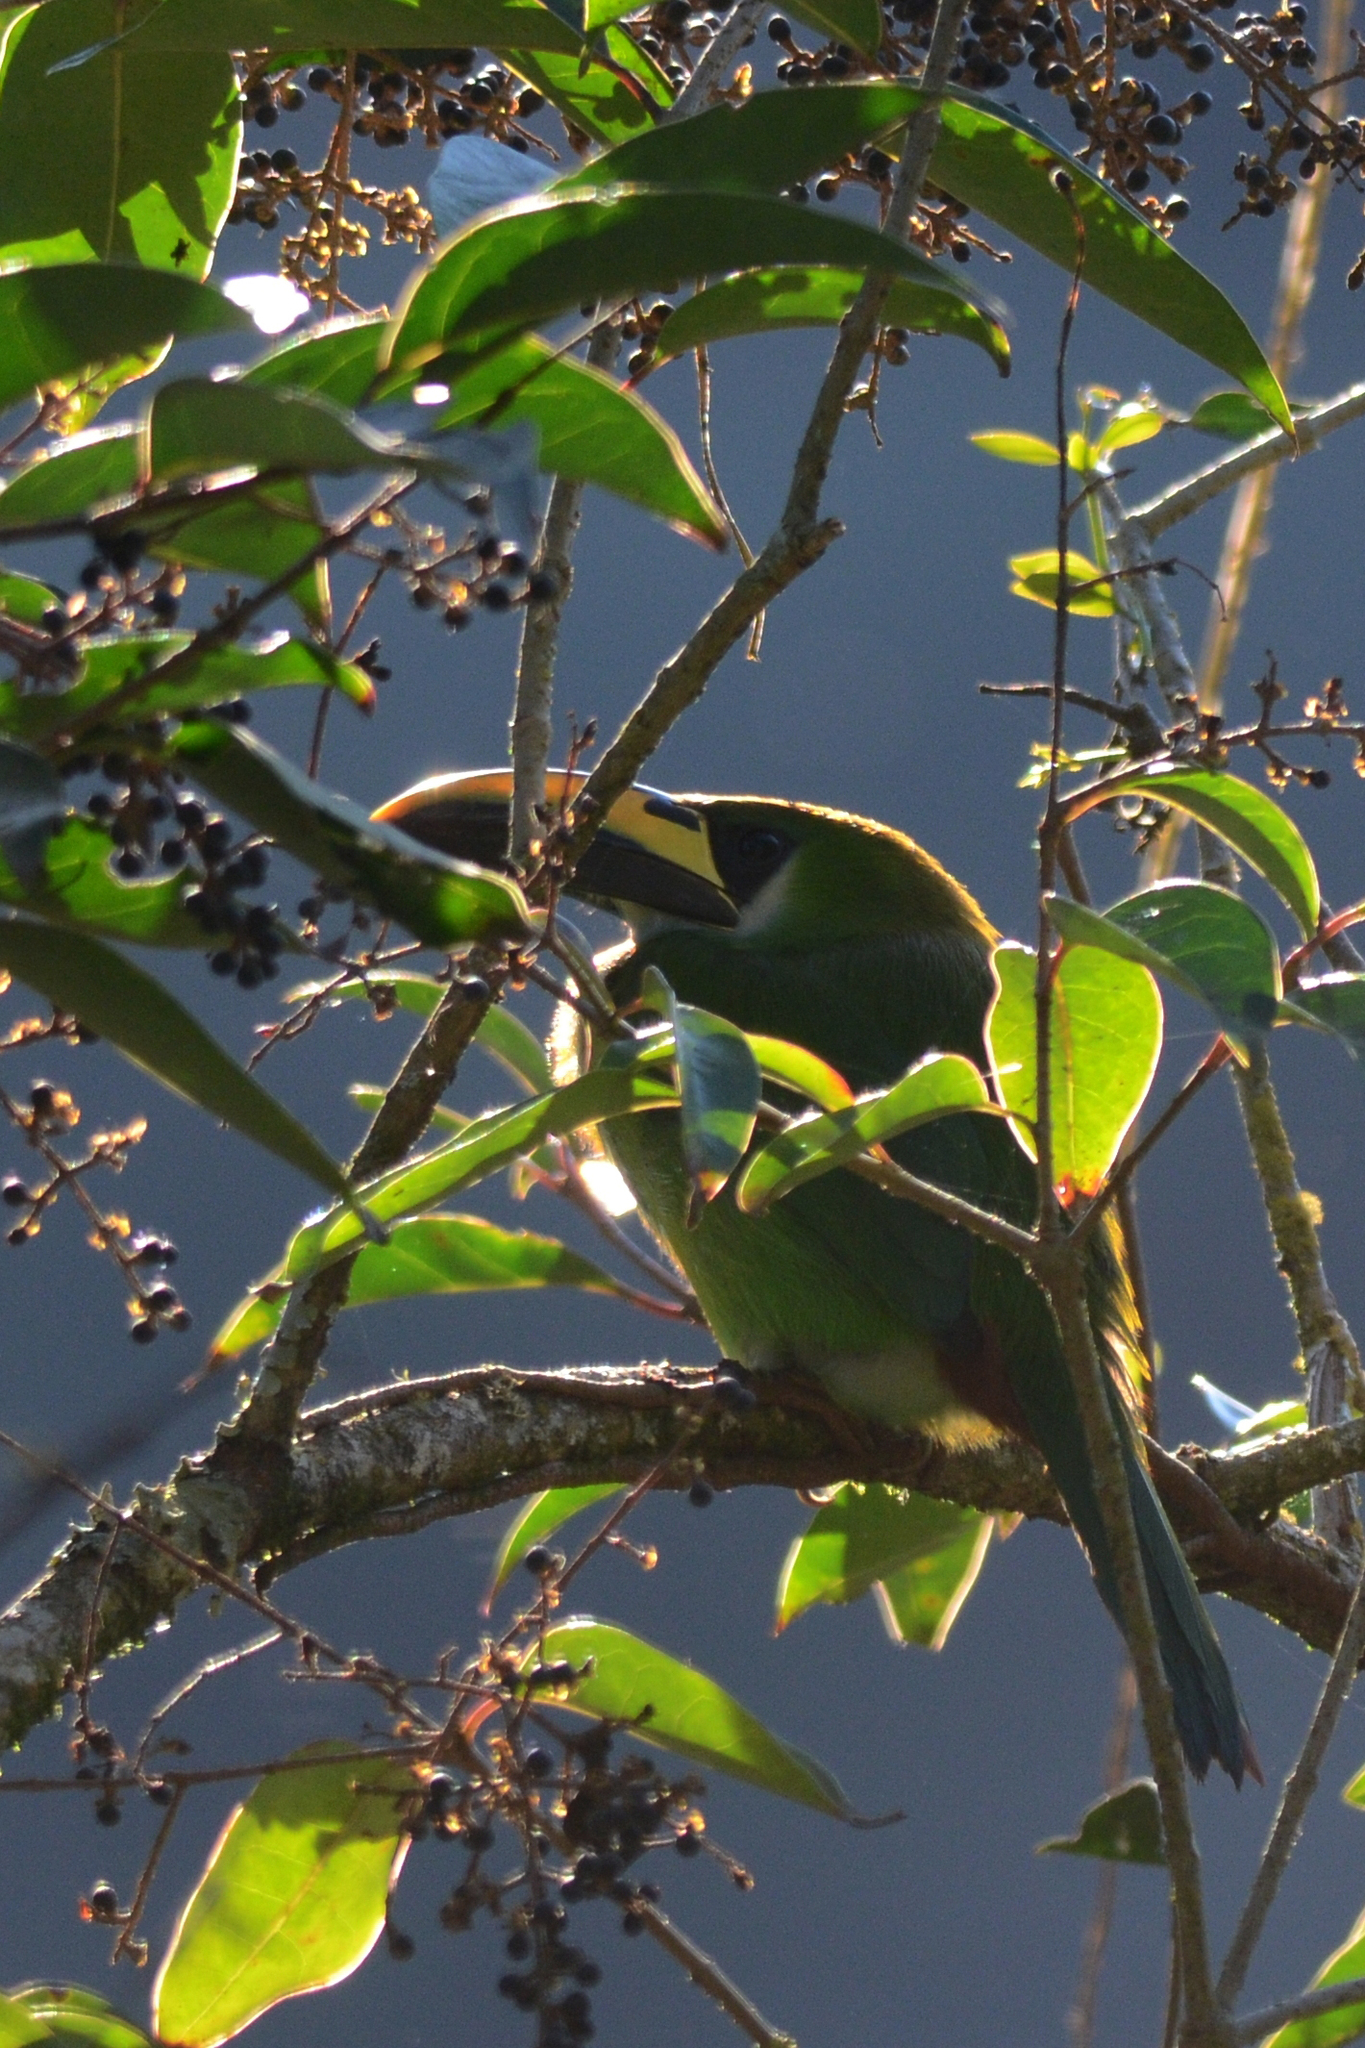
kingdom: Animalia
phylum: Chordata
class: Aves
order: Piciformes
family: Ramphastidae
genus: Aulacorhynchus
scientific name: Aulacorhynchus prasinus
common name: Emerald toucanet
